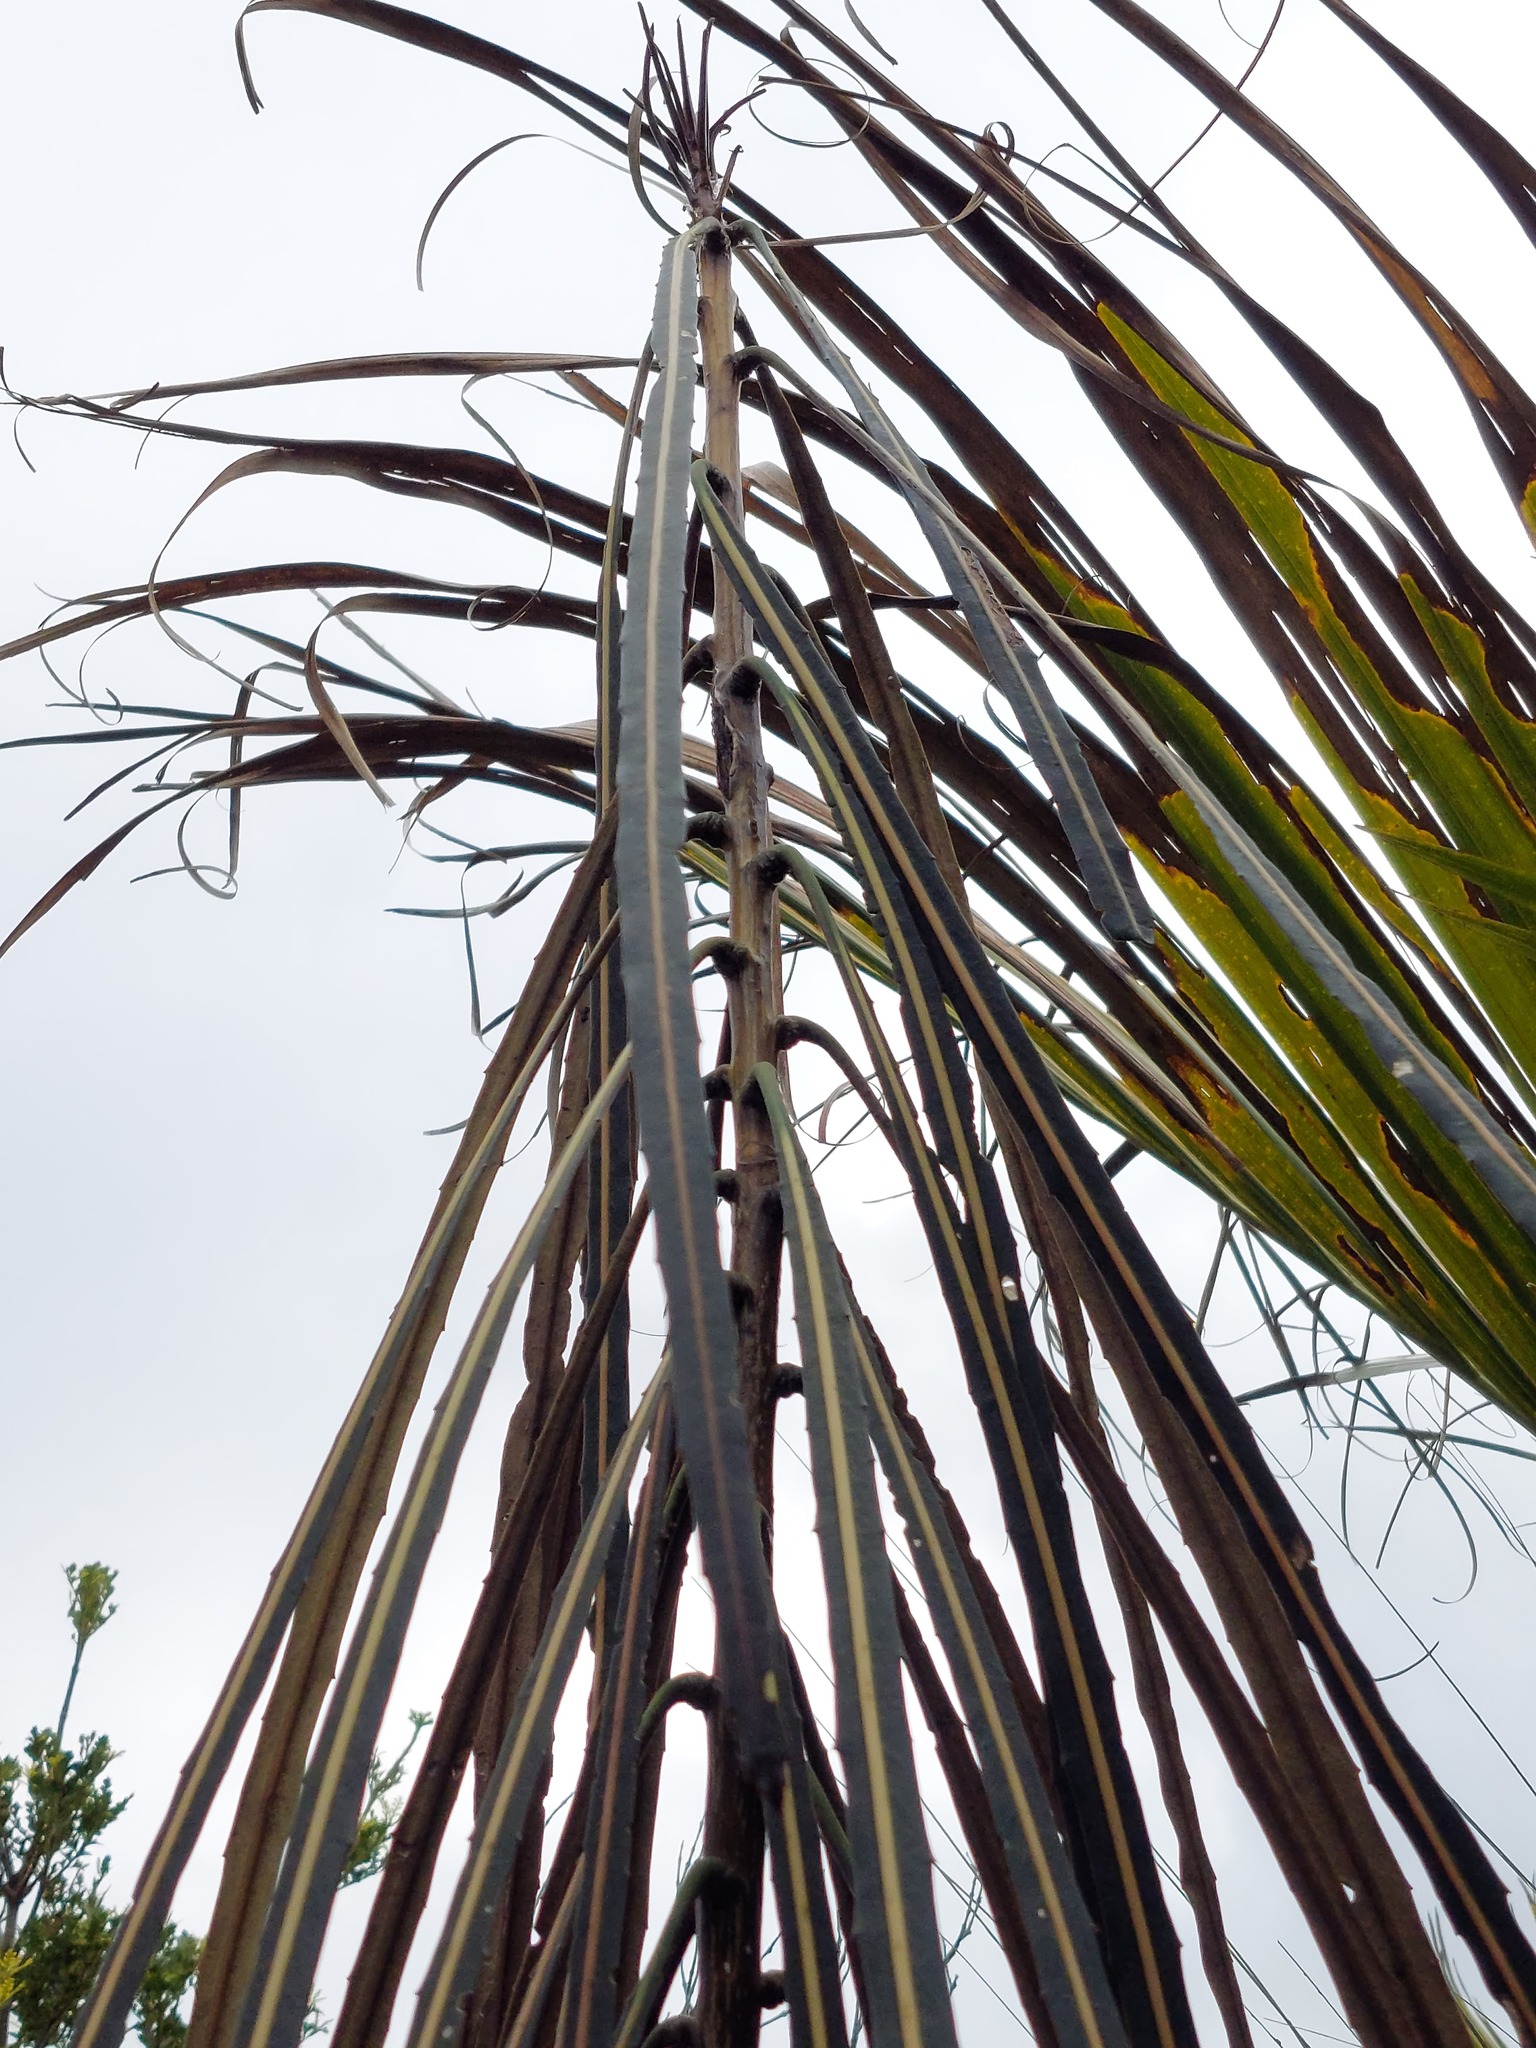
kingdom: Plantae
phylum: Tracheophyta
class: Magnoliopsida
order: Apiales
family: Araliaceae
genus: Pseudopanax
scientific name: Pseudopanax crassifolius
